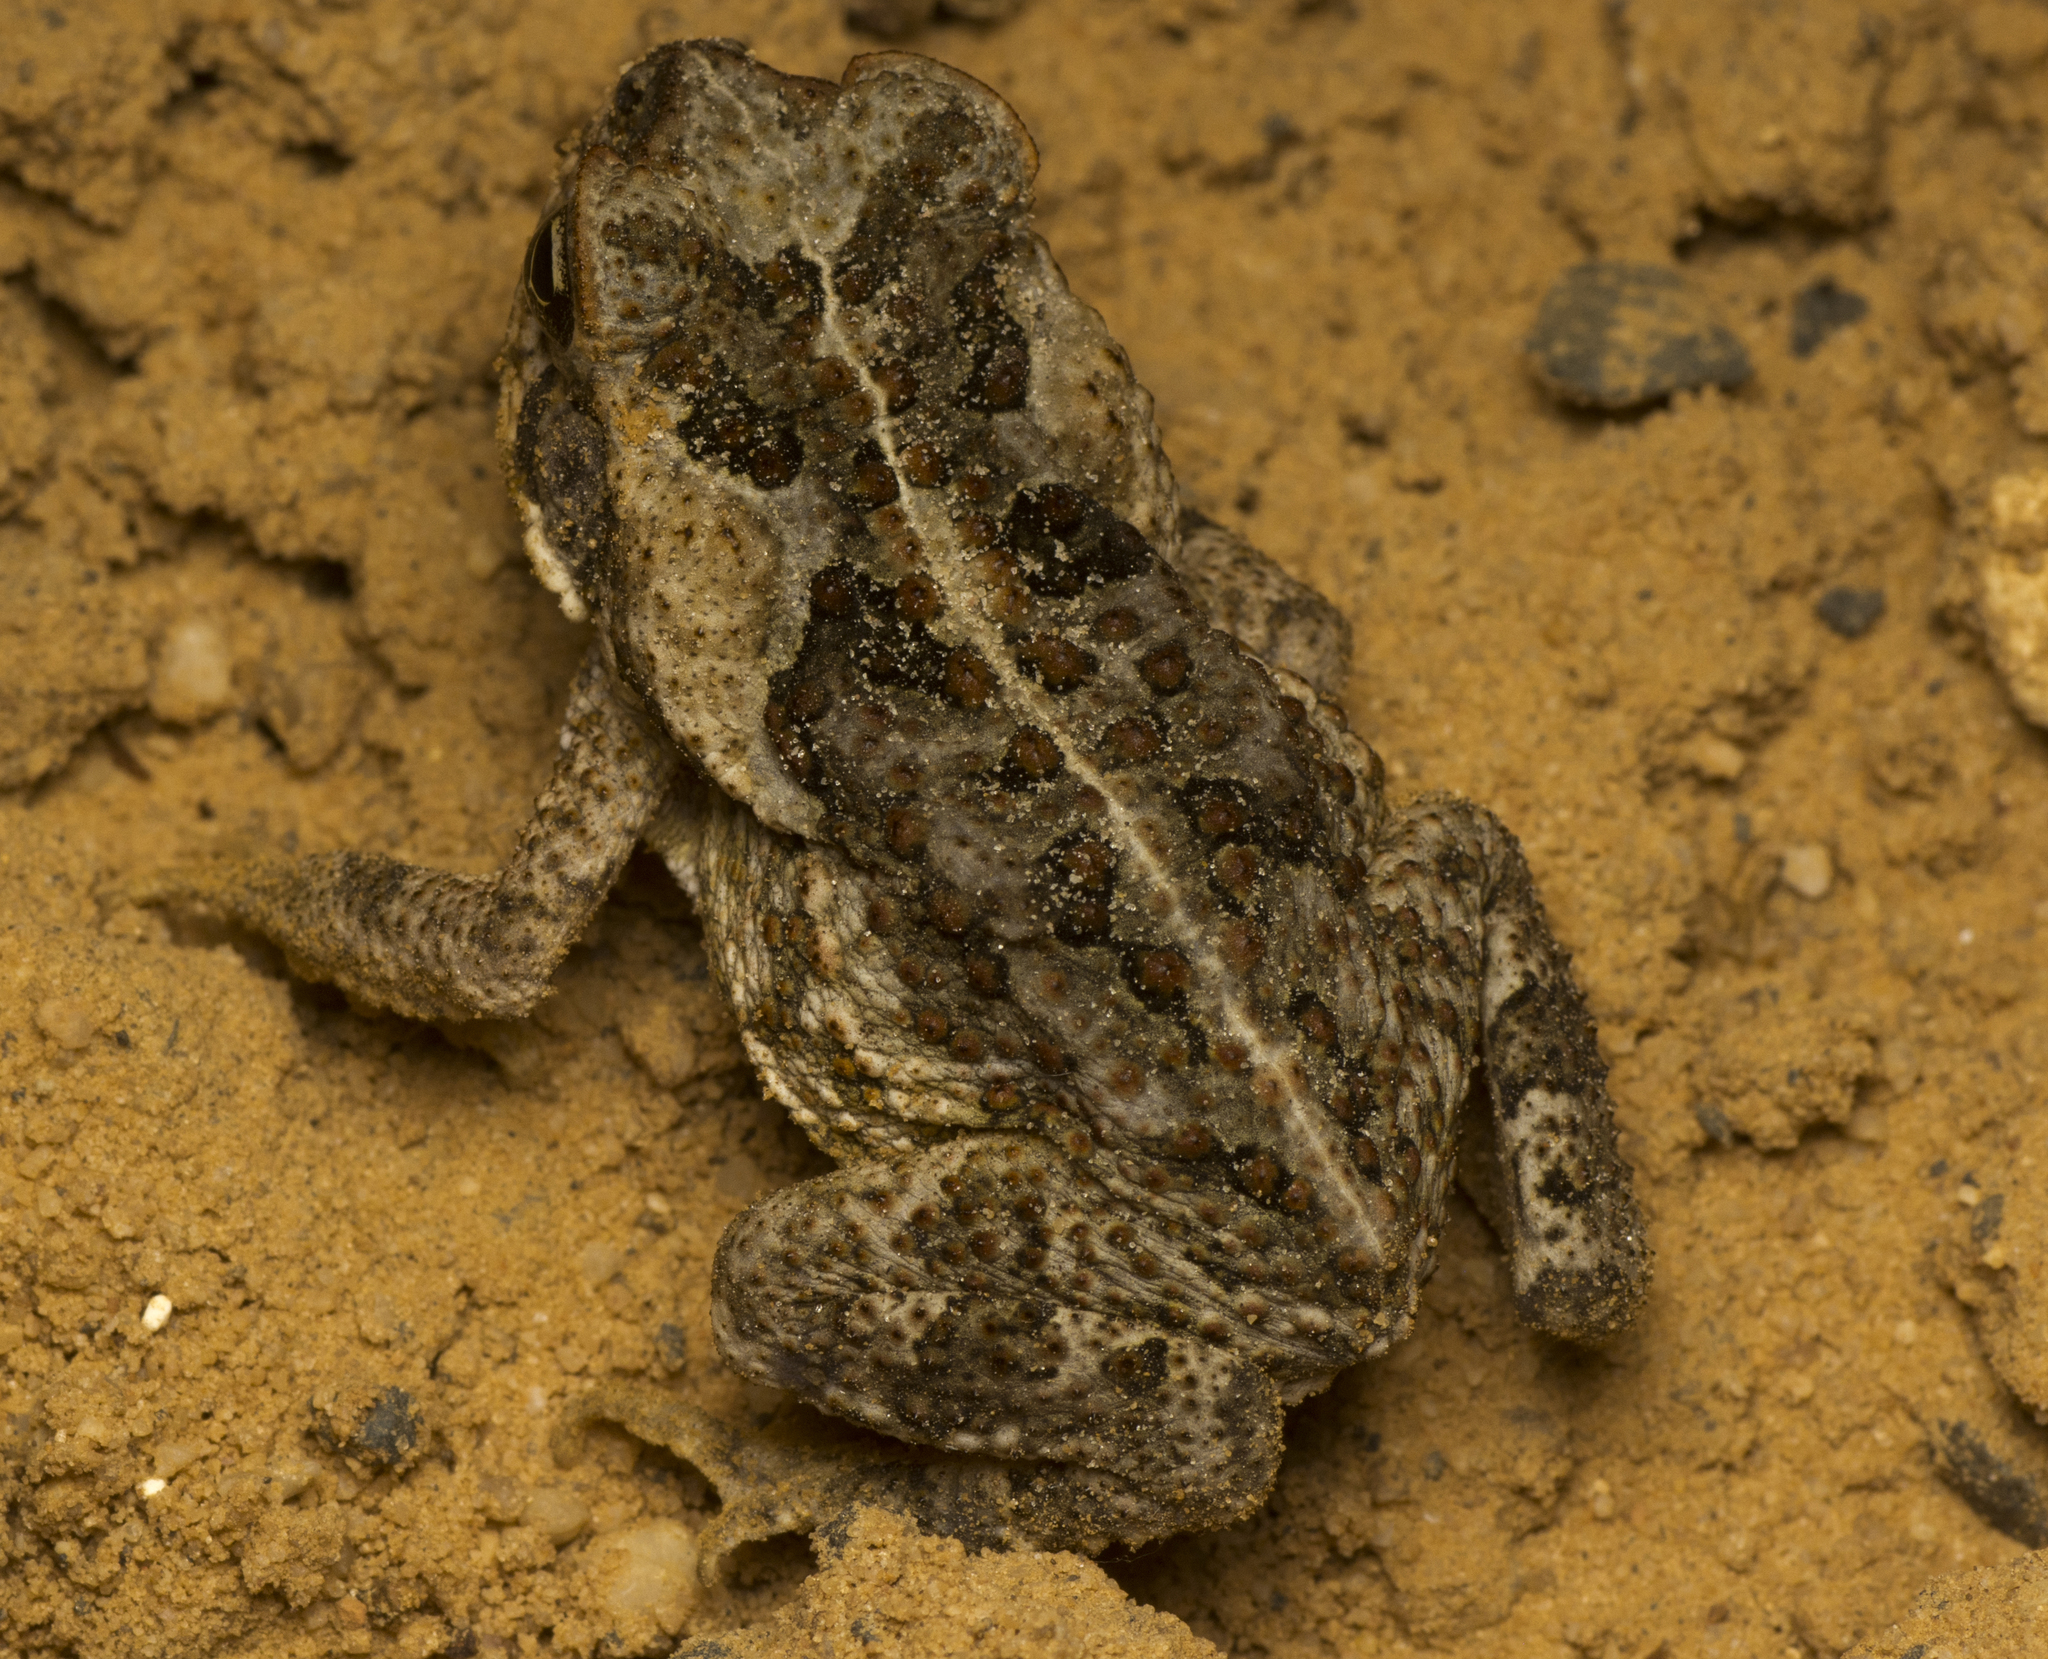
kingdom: Animalia
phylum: Chordata
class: Amphibia
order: Anura
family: Bufonidae
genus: Rhinella
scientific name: Rhinella marina
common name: Cane toad
